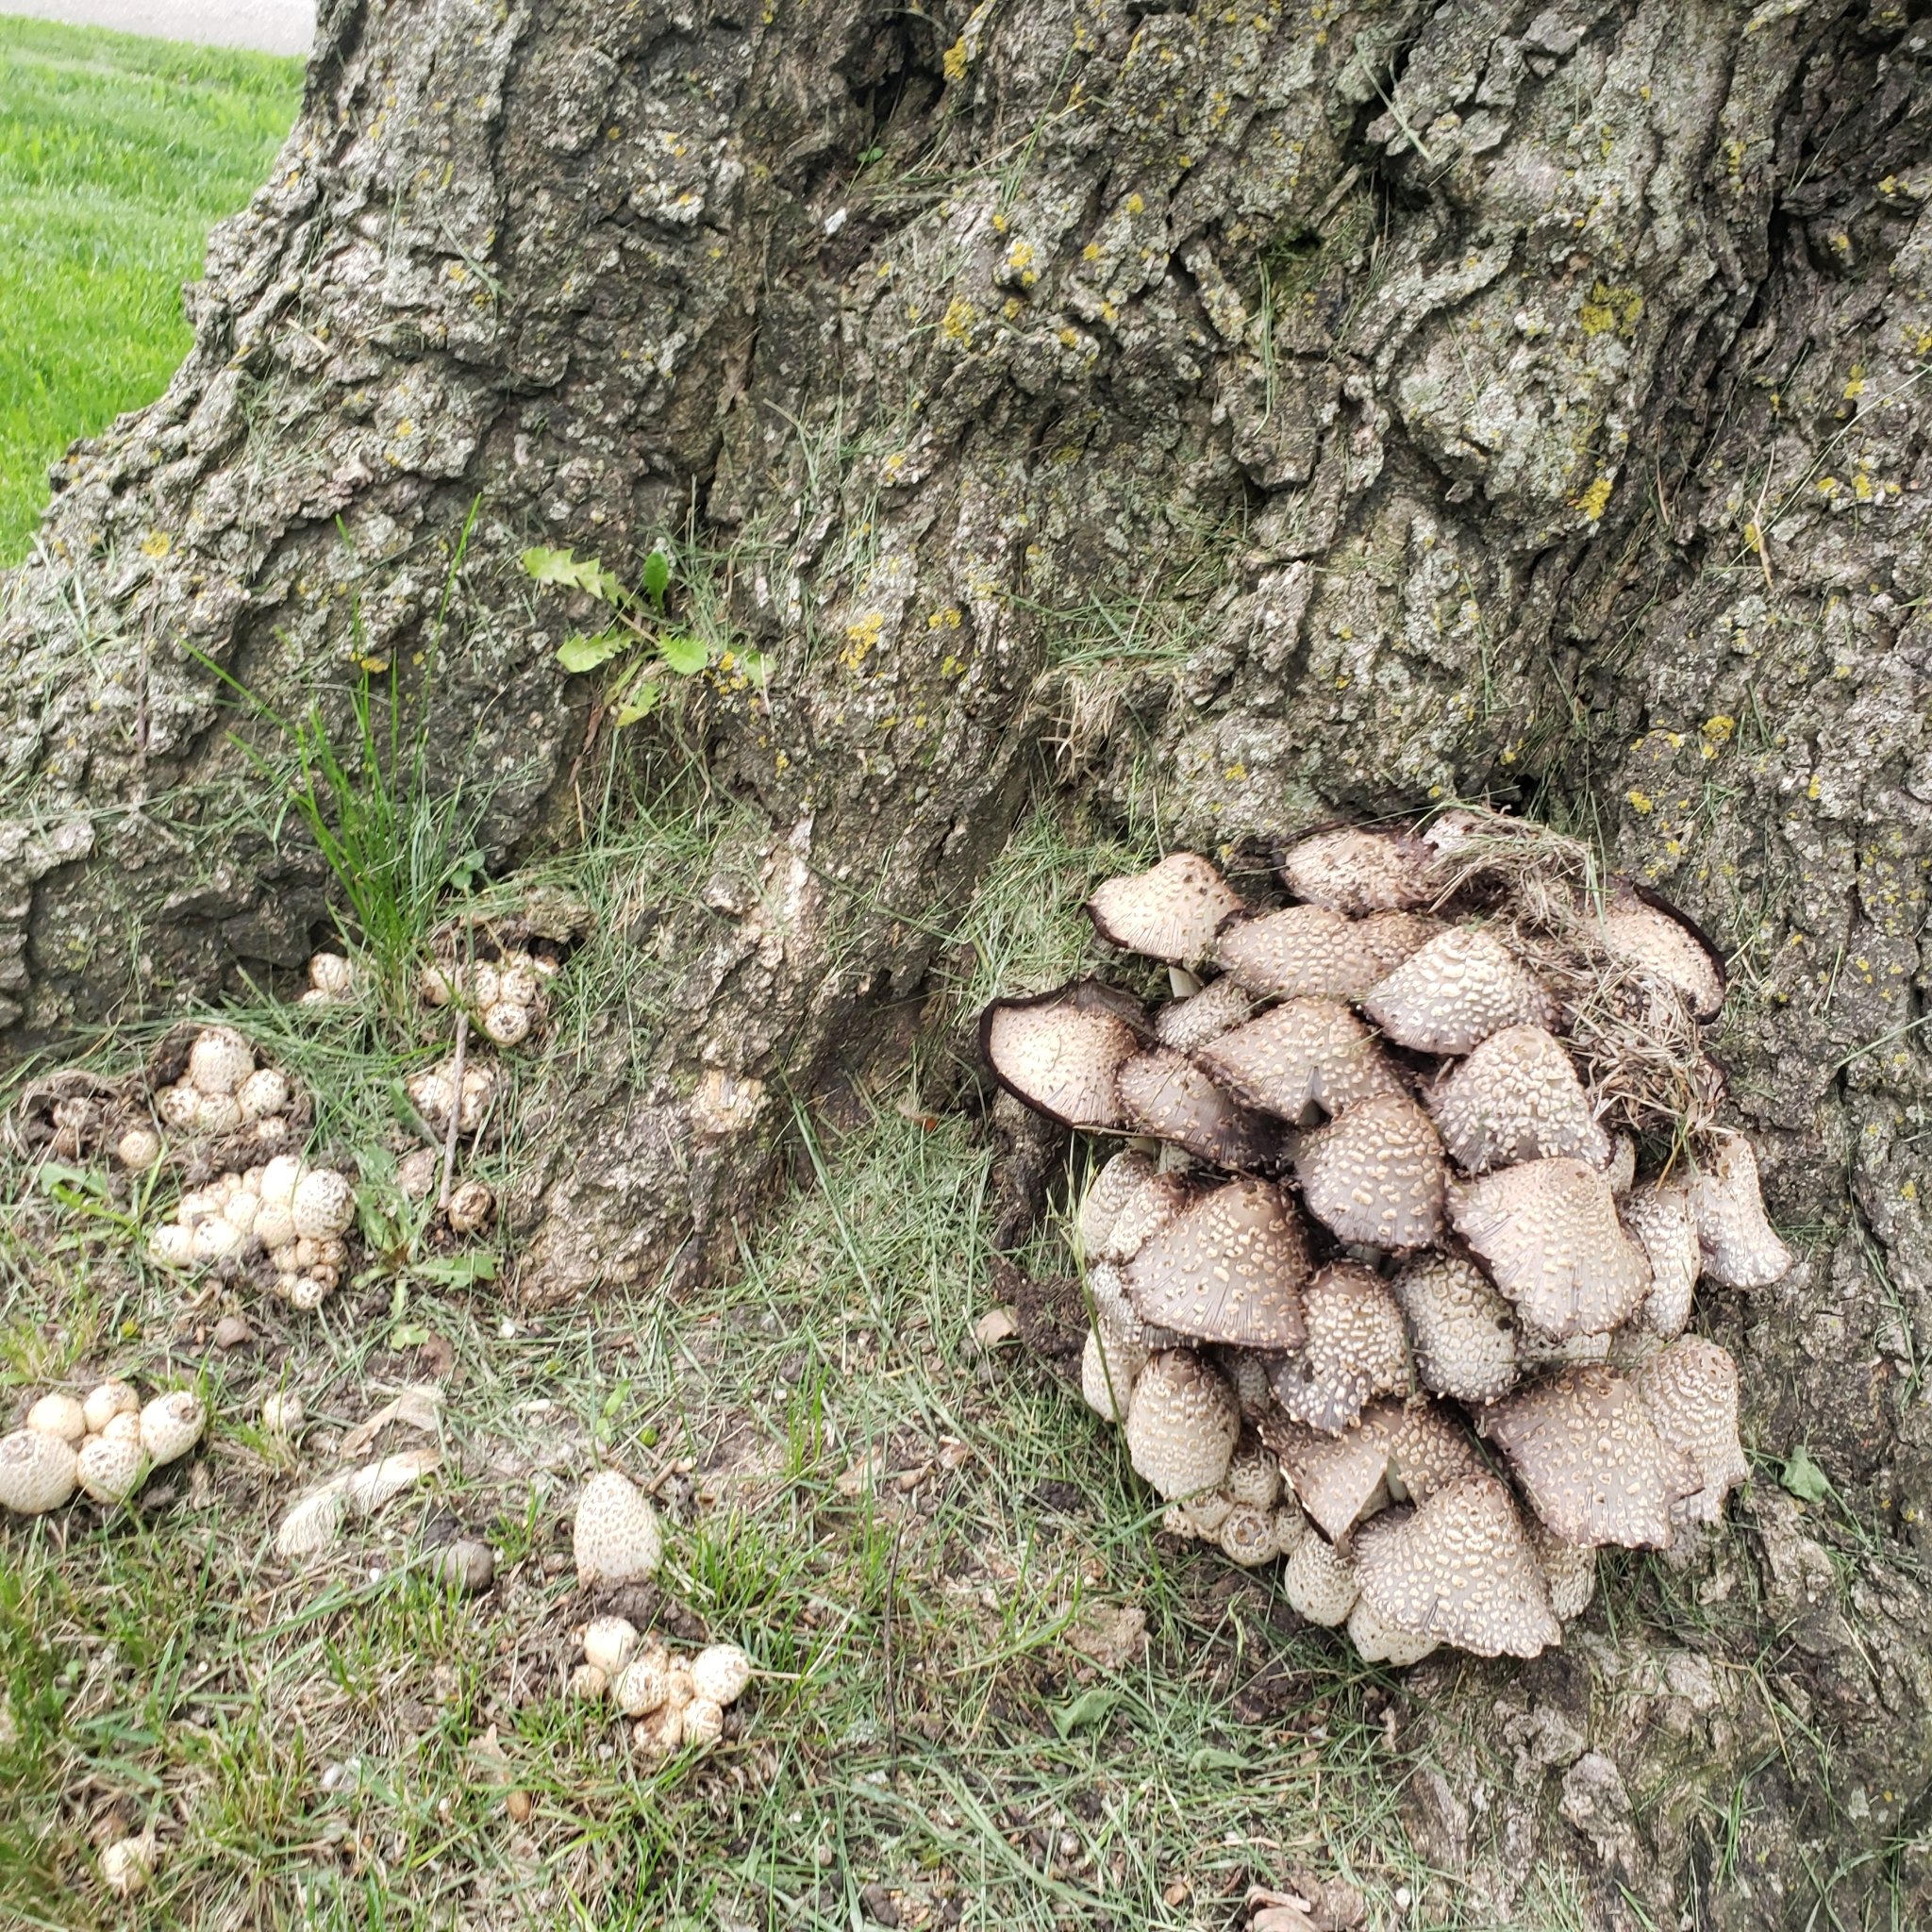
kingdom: Fungi
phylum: Basidiomycota
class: Agaricomycetes
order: Agaricales
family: Psathyrellaceae
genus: Coprinopsis
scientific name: Coprinopsis variegata
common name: Scaly ink cap
